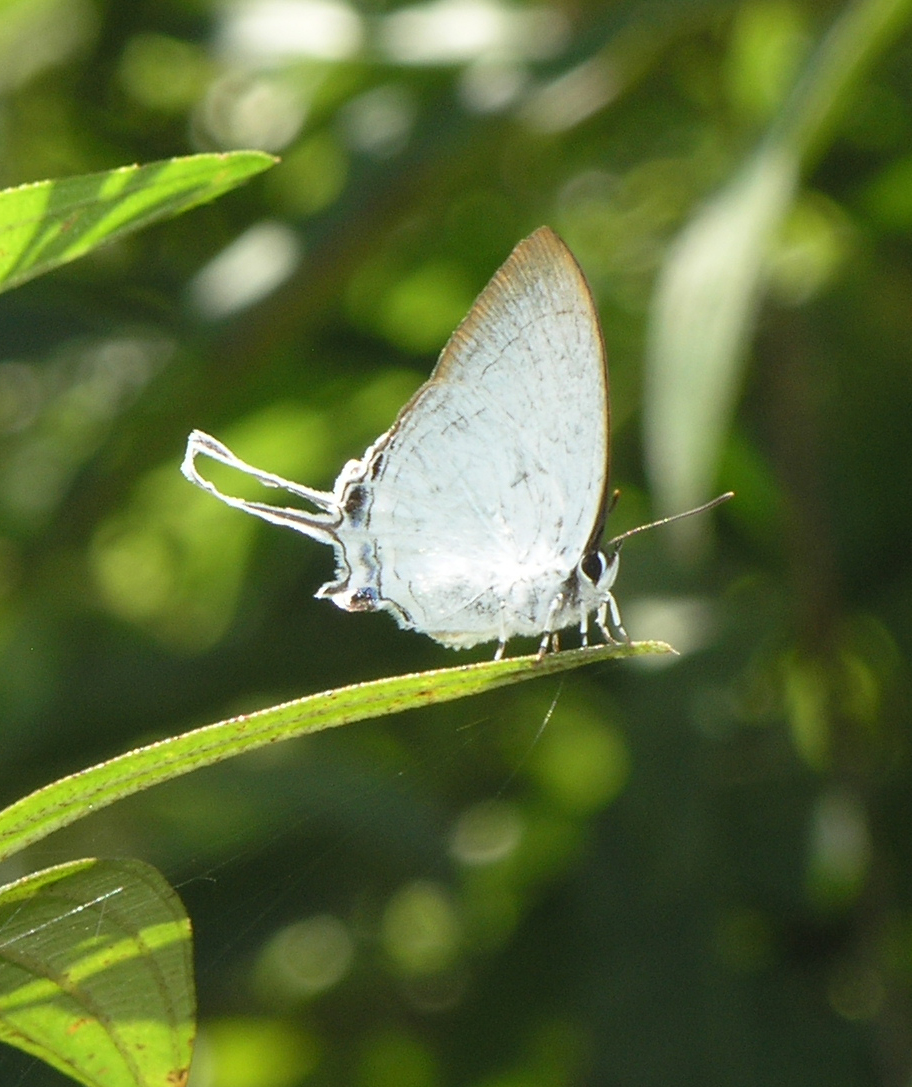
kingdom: Animalia
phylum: Arthropoda
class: Insecta
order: Lepidoptera
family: Lycaenidae
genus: Cheritra
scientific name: Cheritra freja
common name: Common imperial
